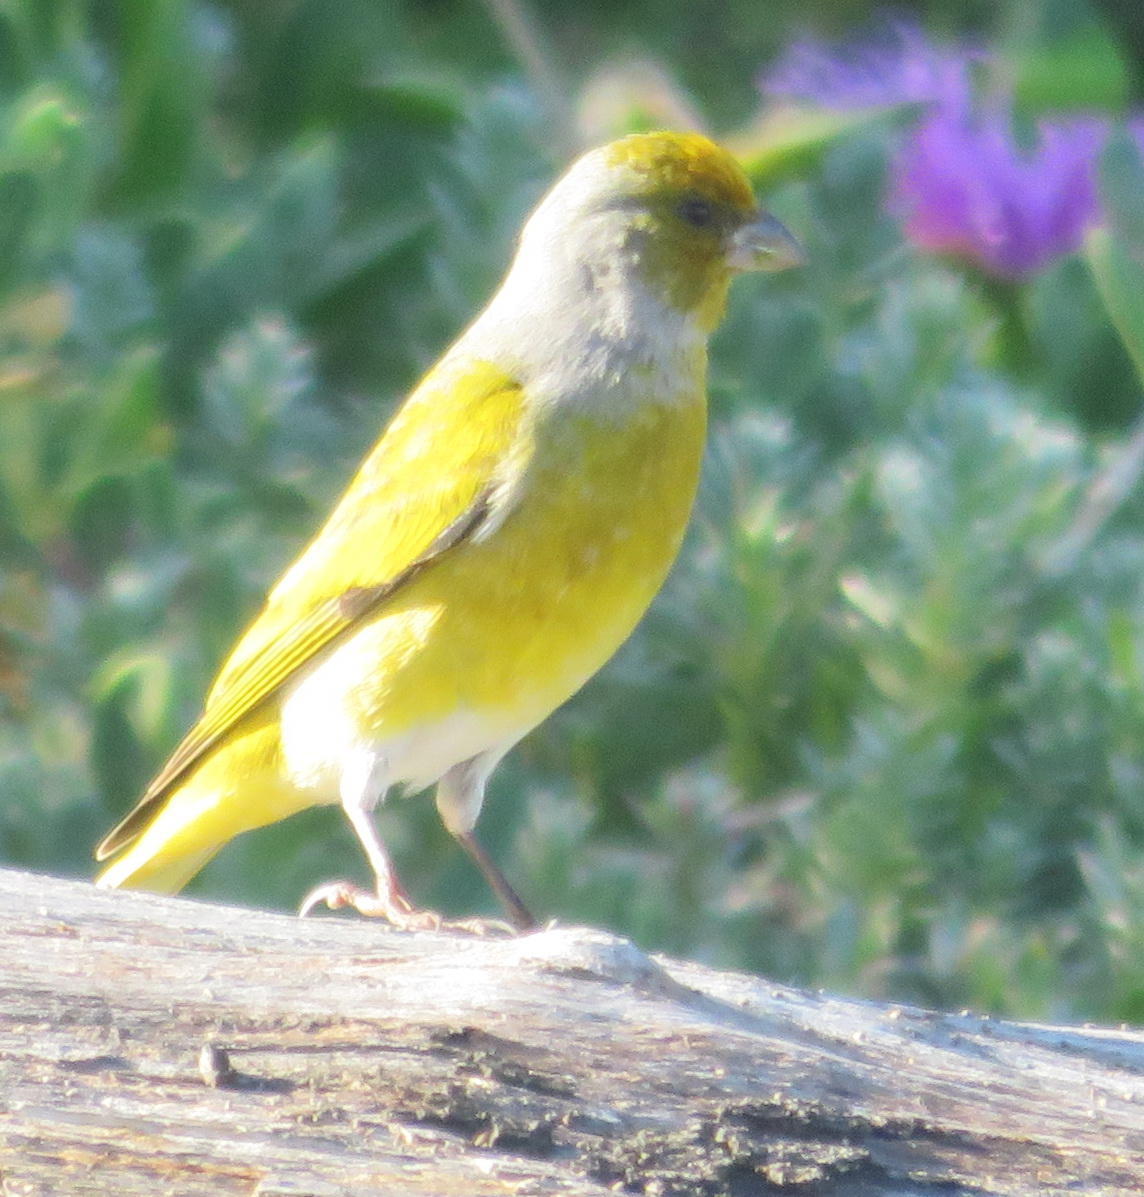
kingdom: Animalia
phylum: Chordata
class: Aves
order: Passeriformes
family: Fringillidae
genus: Serinus
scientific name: Serinus canicollis
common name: Cape canary
